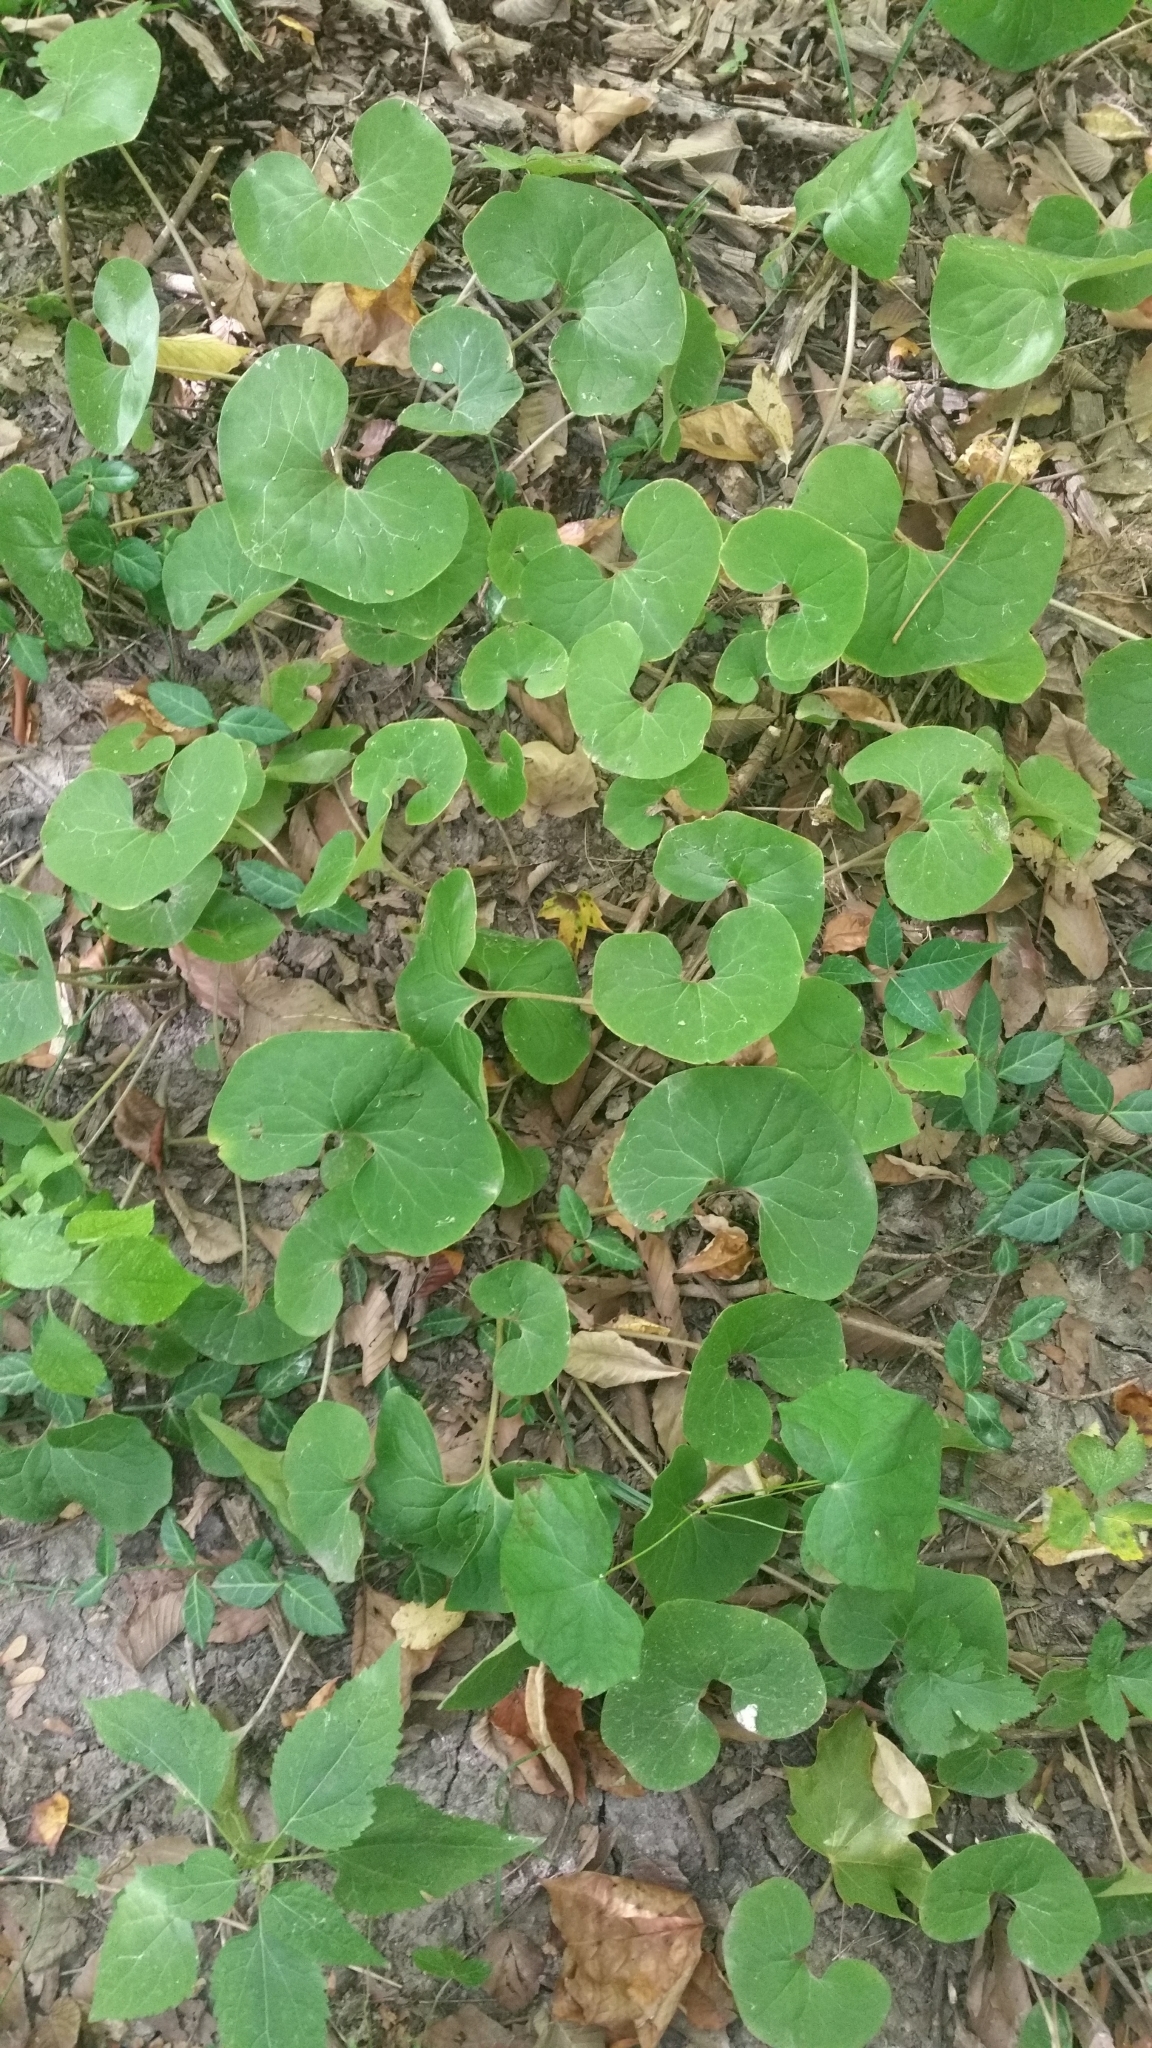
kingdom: Plantae
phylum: Tracheophyta
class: Magnoliopsida
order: Piperales
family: Aristolochiaceae
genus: Asarum
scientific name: Asarum canadense
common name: Wild ginger
